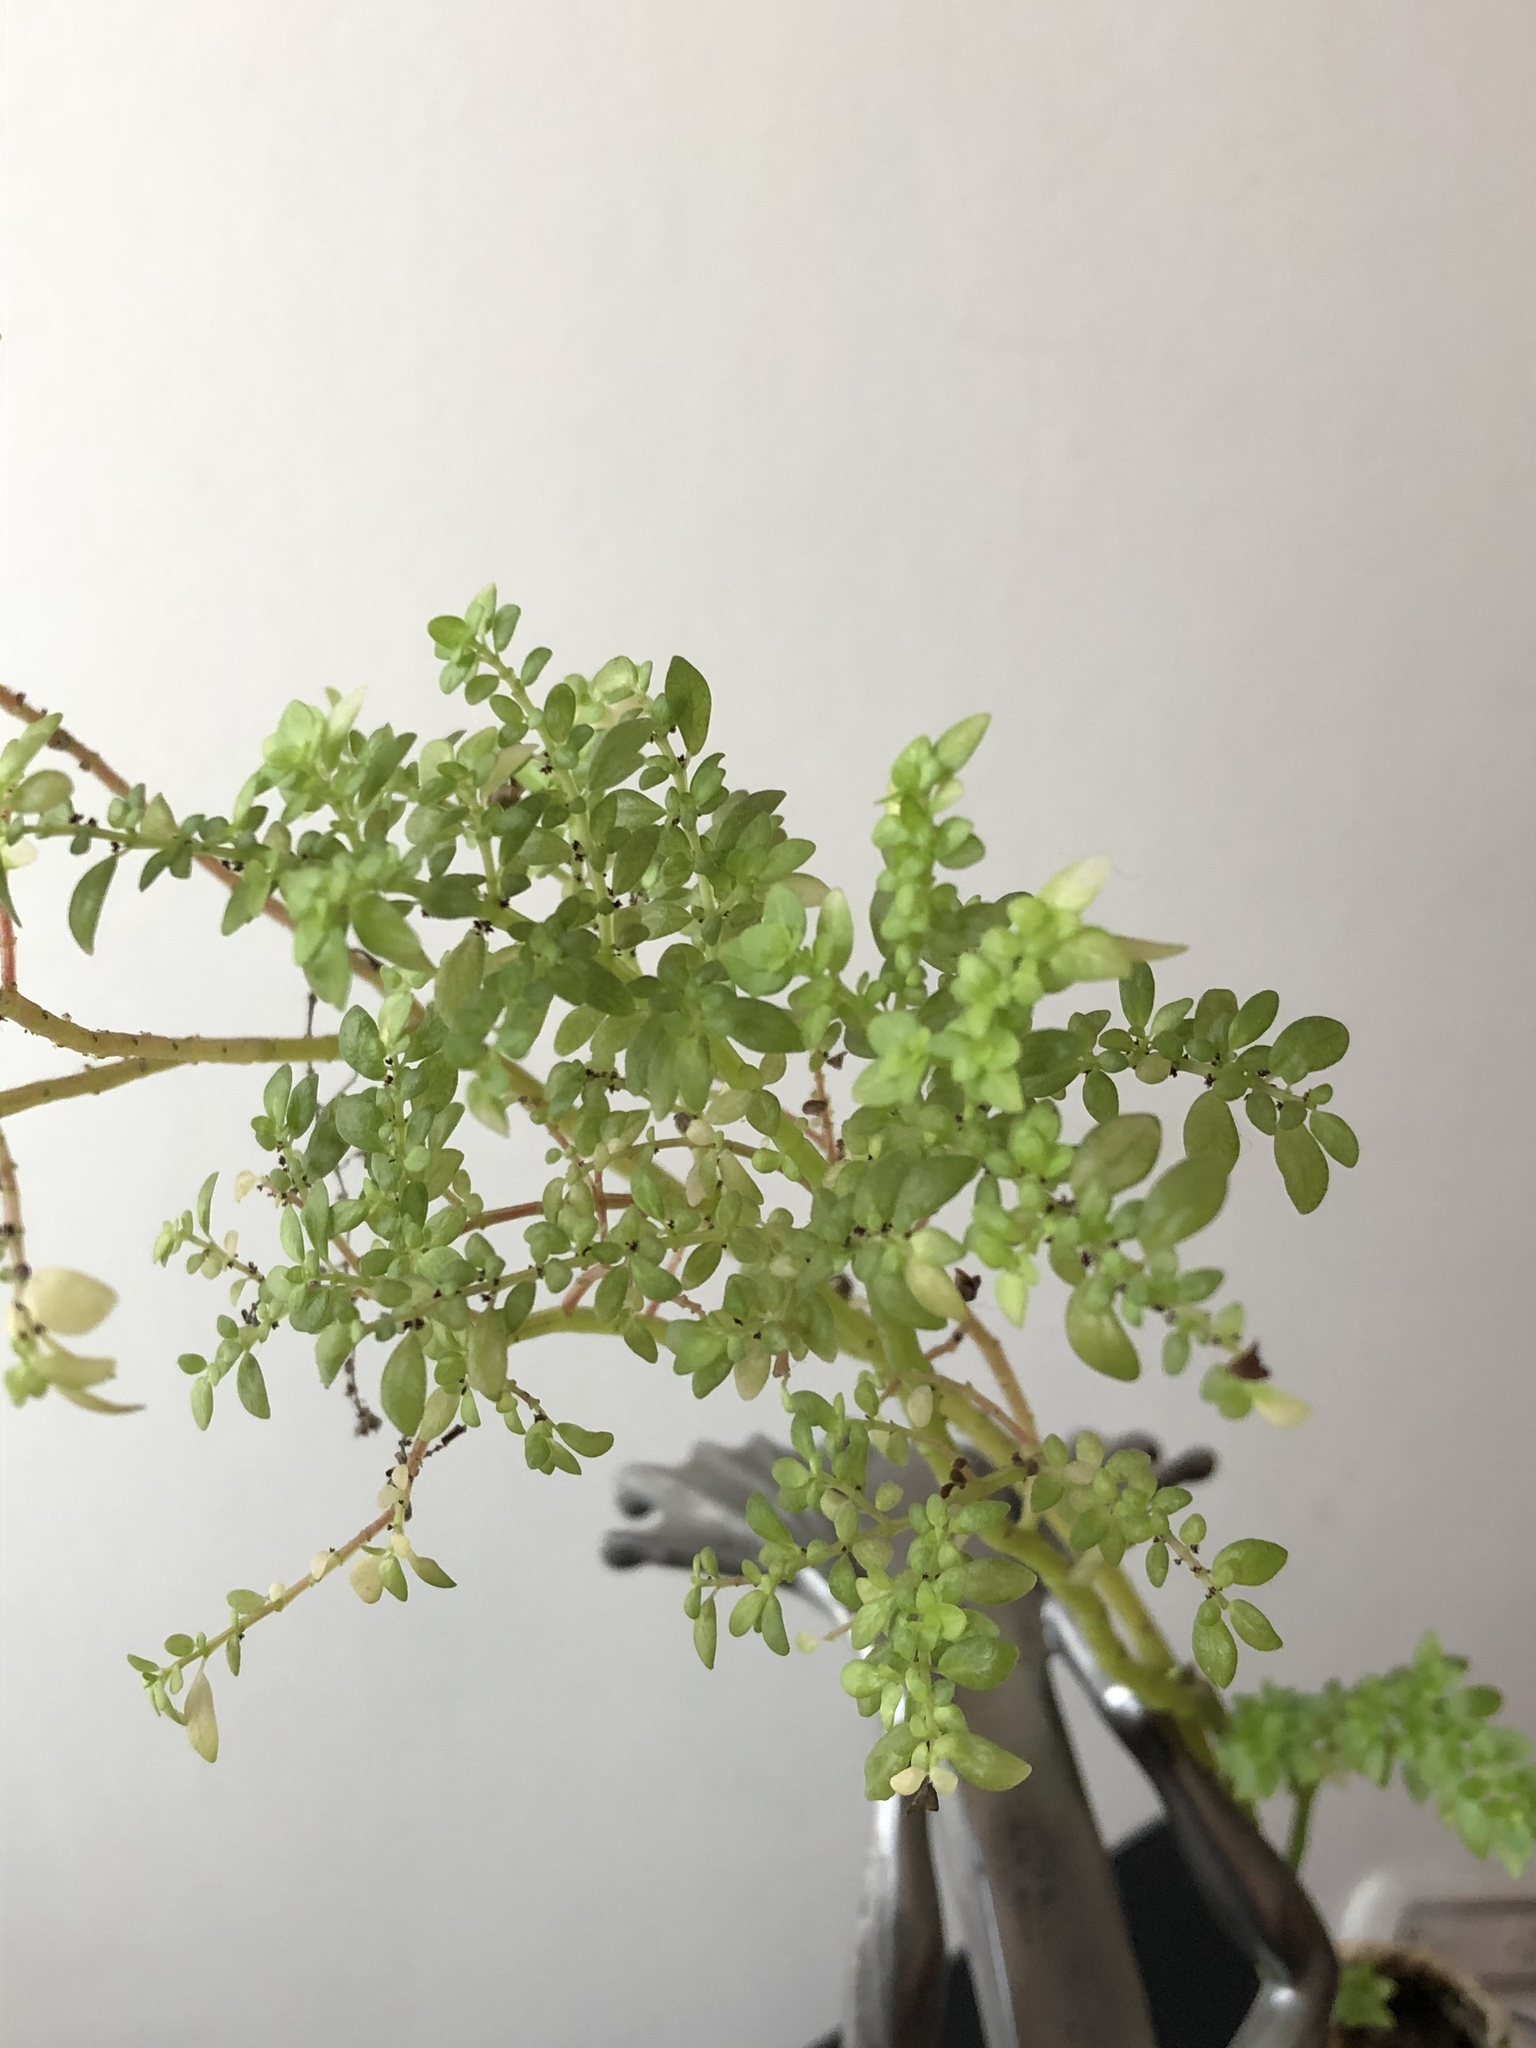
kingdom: Plantae
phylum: Tracheophyta
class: Magnoliopsida
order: Rosales
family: Urticaceae
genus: Pilea
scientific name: Pilea microphylla
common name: Artillery-plant
